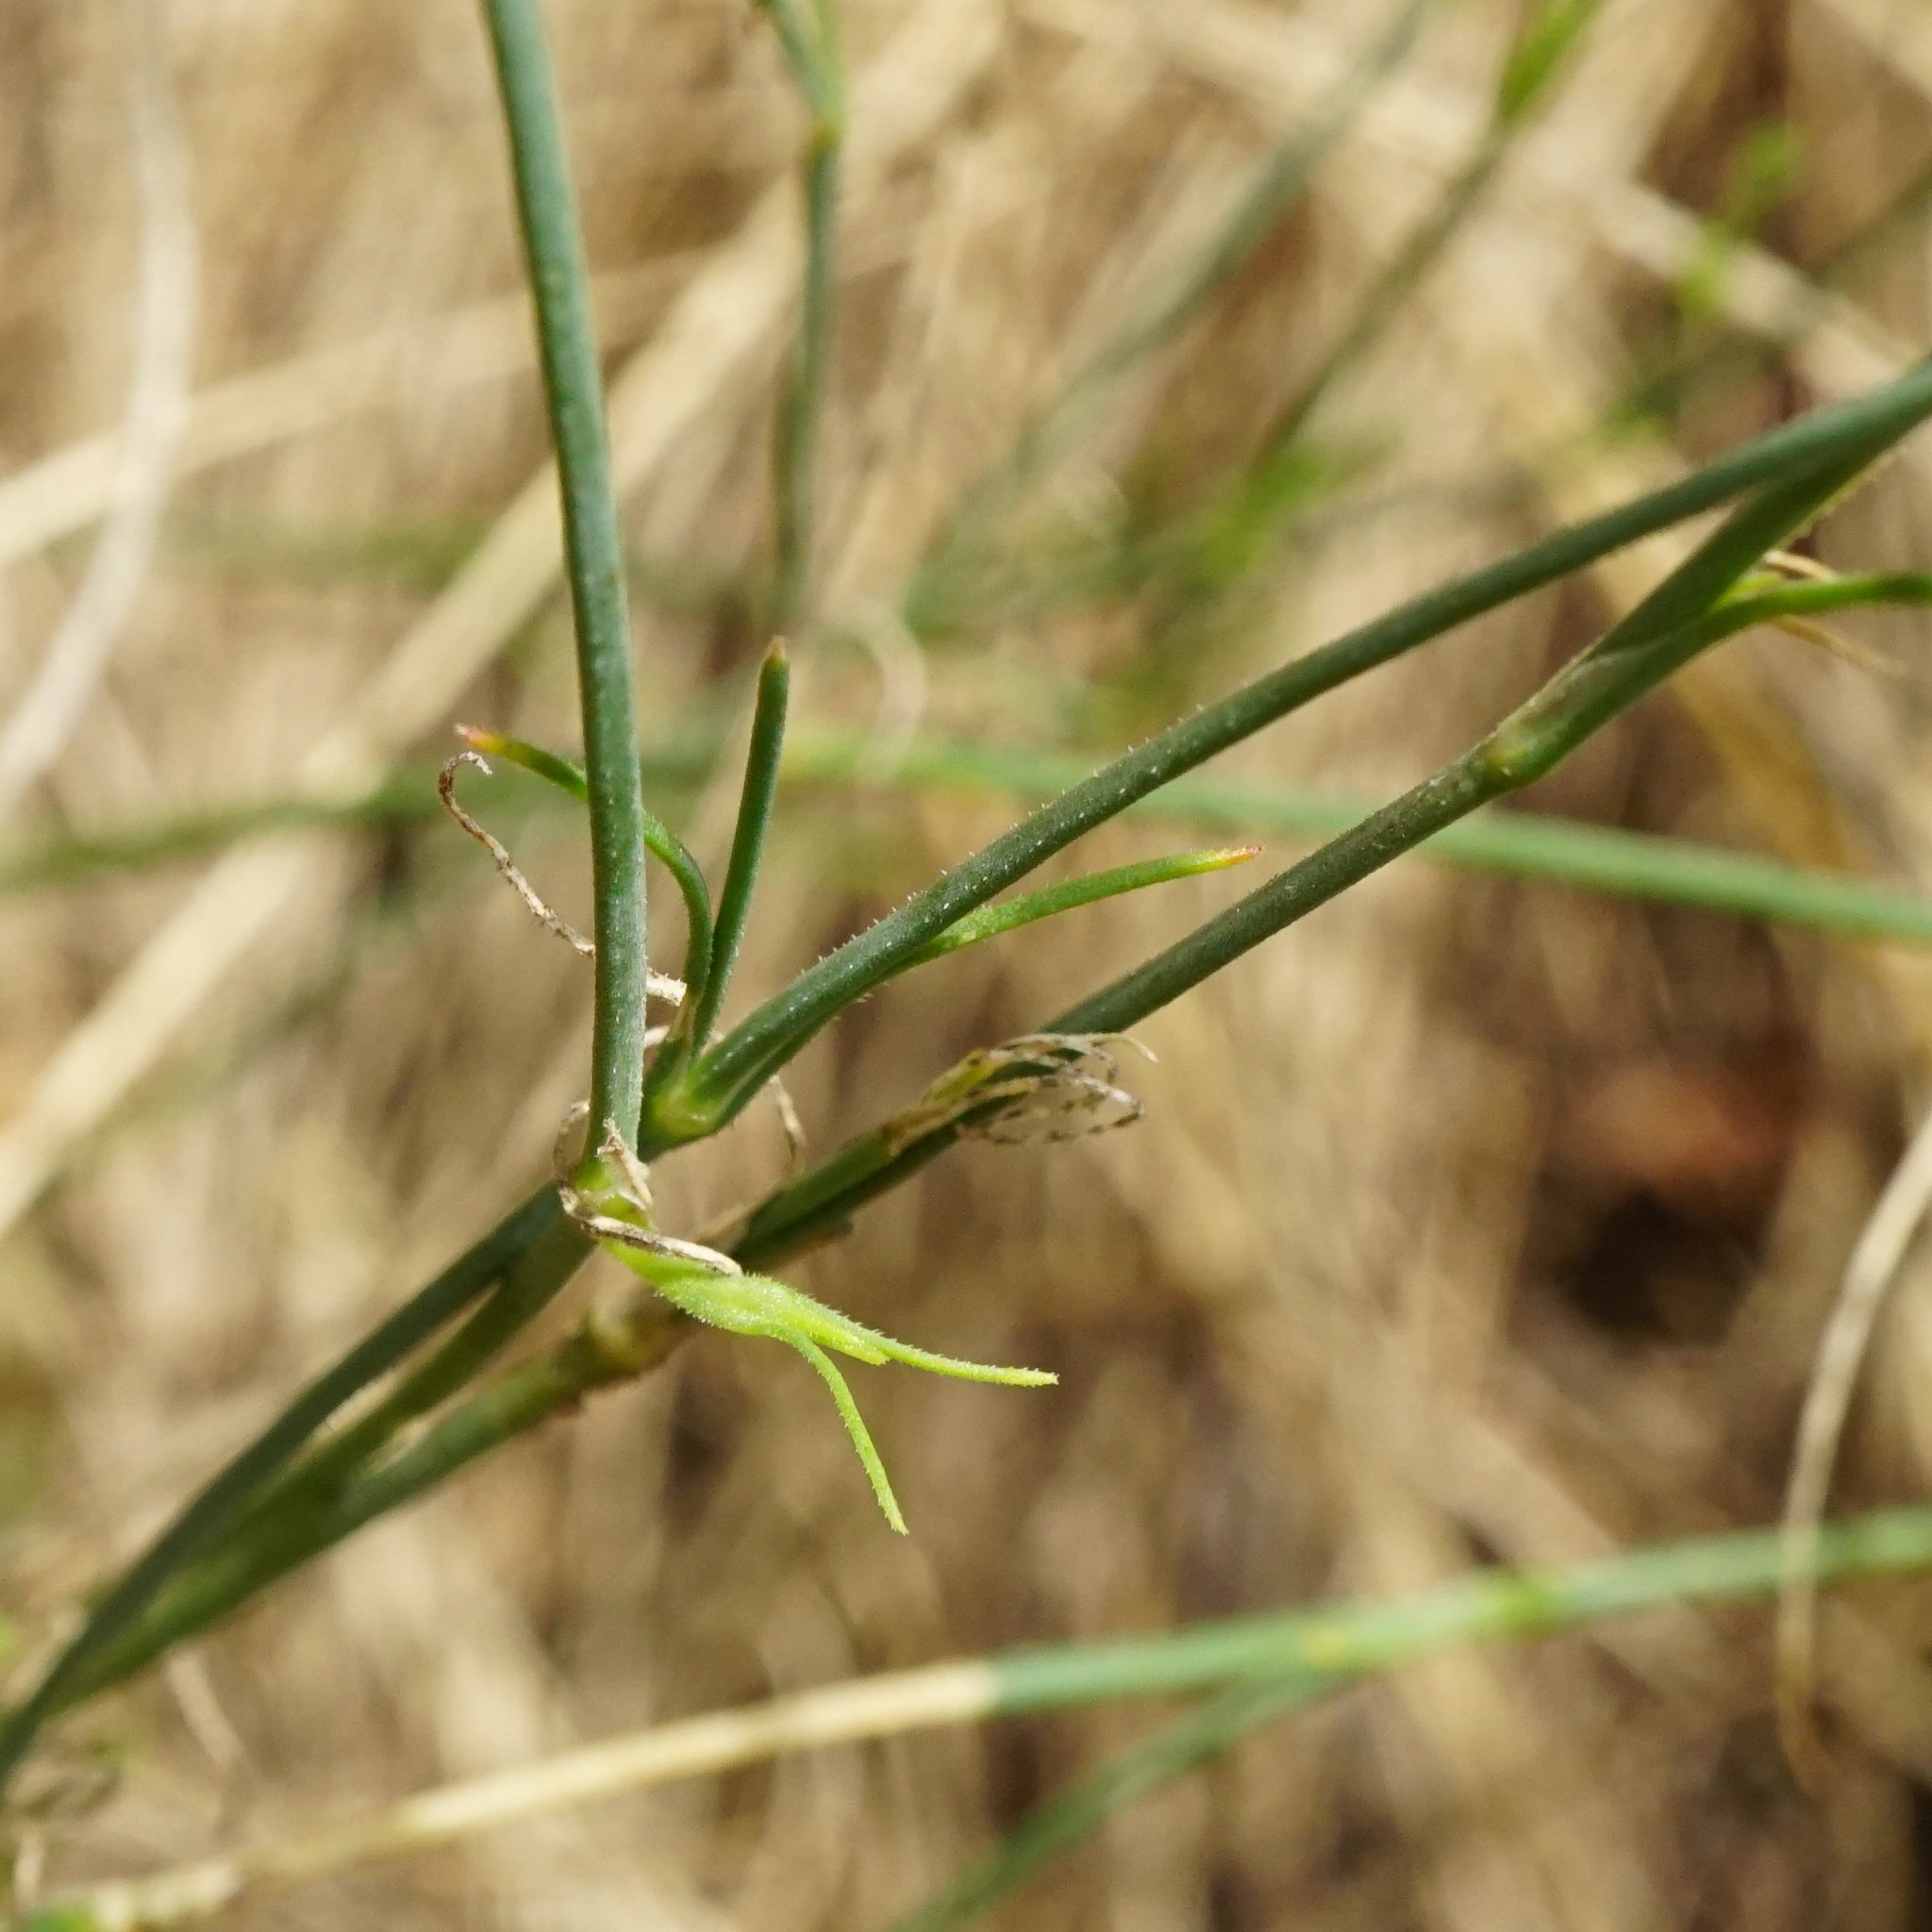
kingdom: Plantae
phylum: Tracheophyta
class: Magnoliopsida
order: Caryophyllales
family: Caryophyllaceae
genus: Petrorhagia
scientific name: Petrorhagia saxifraga
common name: Tunicflower
